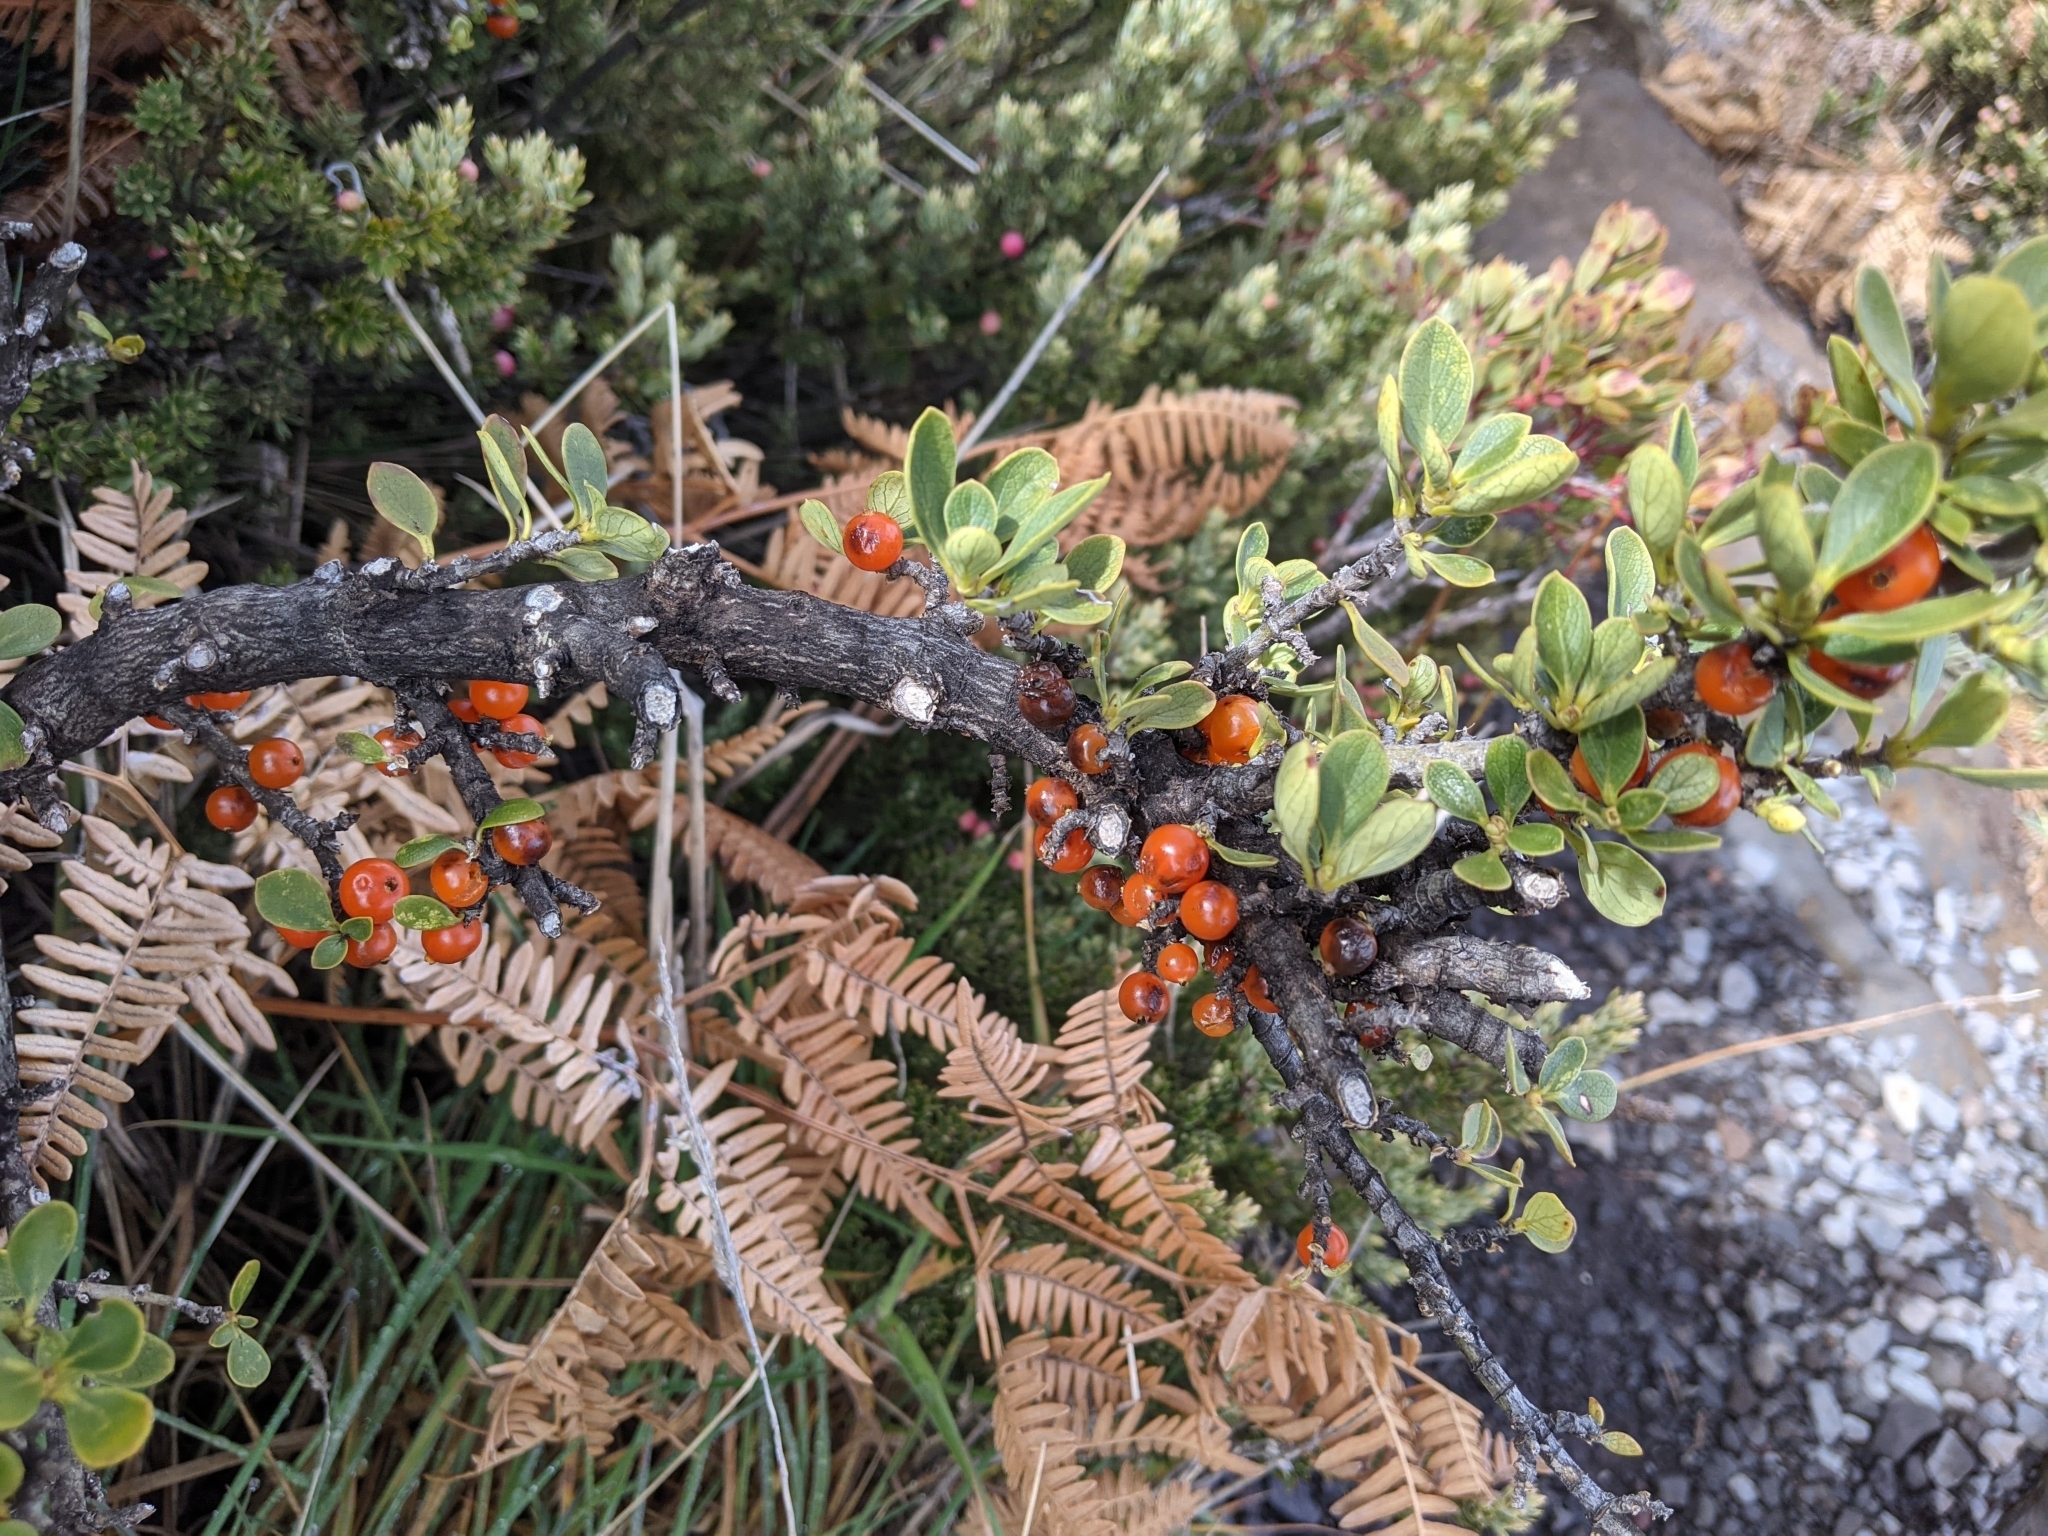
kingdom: Plantae
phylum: Tracheophyta
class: Magnoliopsida
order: Gentianales
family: Rubiaceae
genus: Coprosma
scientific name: Coprosma montana
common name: Alpine mirror plant
